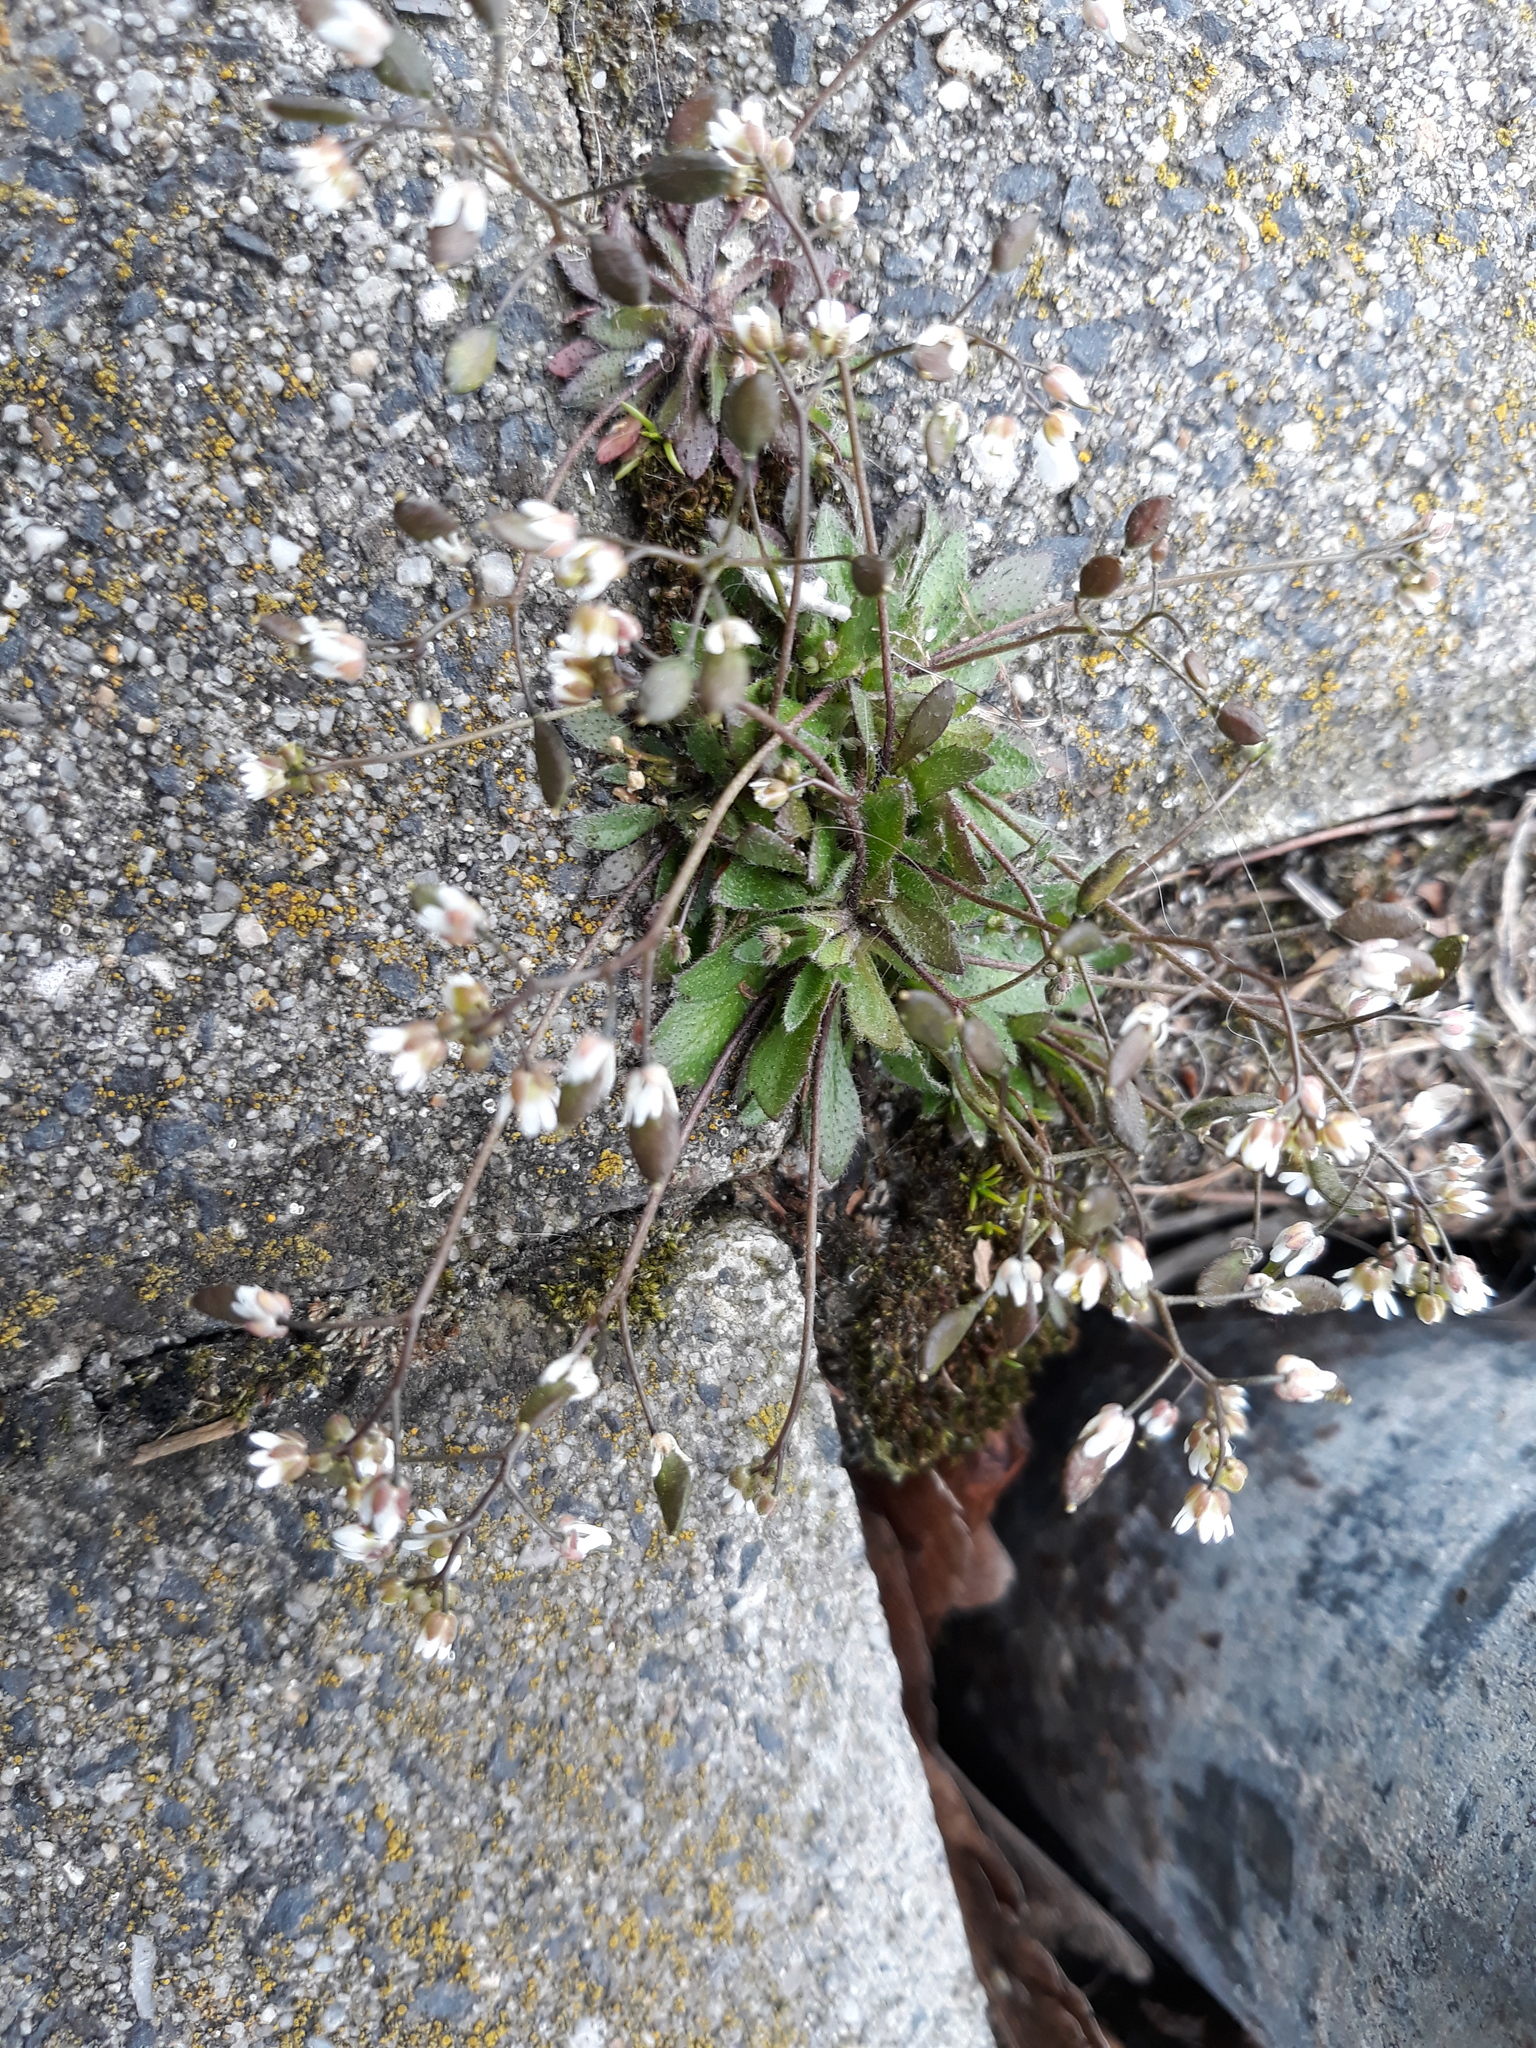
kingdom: Plantae
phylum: Tracheophyta
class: Magnoliopsida
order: Brassicales
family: Brassicaceae
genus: Draba
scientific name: Draba verna
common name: Spring draba
